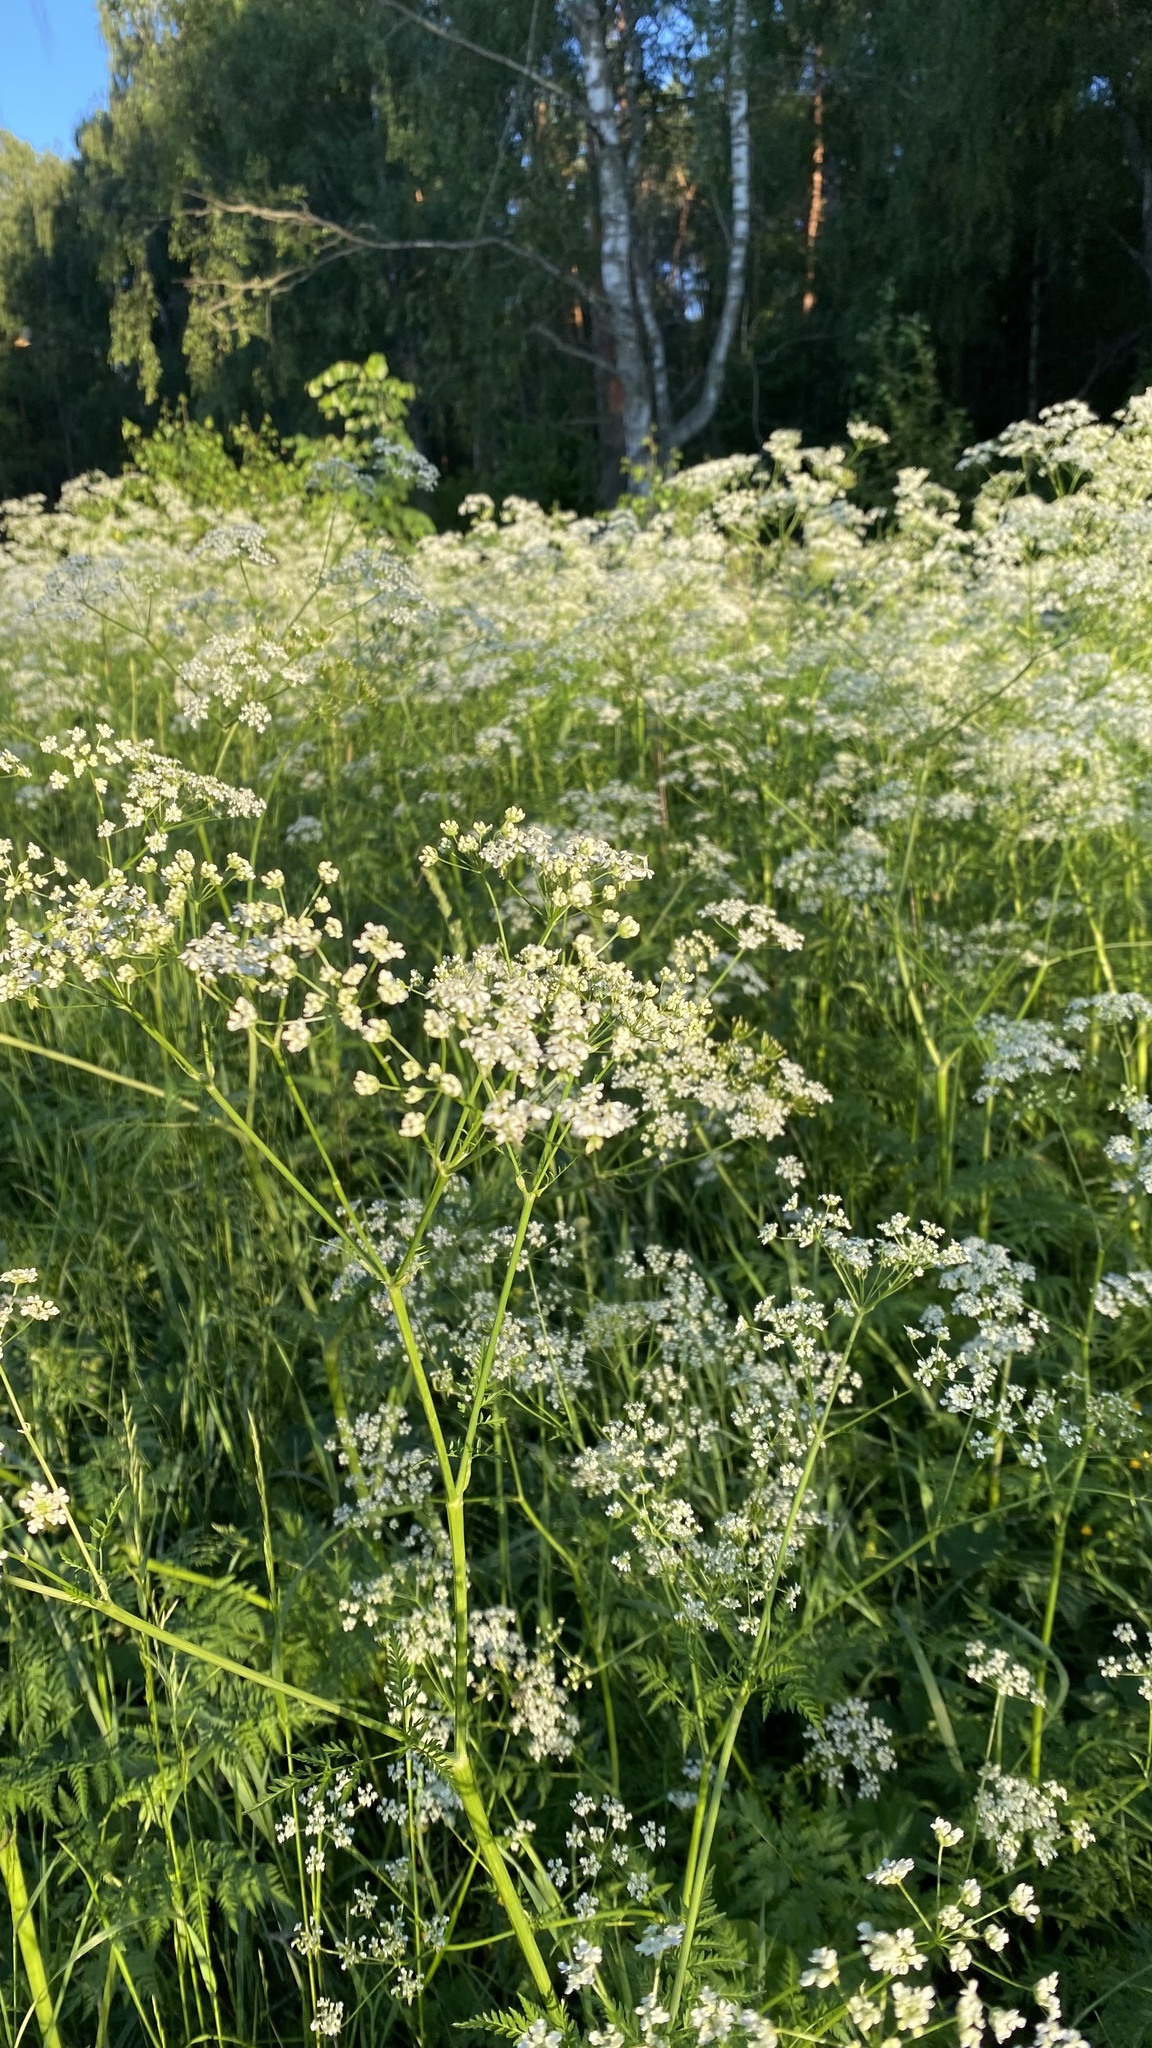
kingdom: Plantae
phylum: Tracheophyta
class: Magnoliopsida
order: Apiales
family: Apiaceae
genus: Anthriscus
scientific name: Anthriscus sylvestris
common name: Cow parsley
